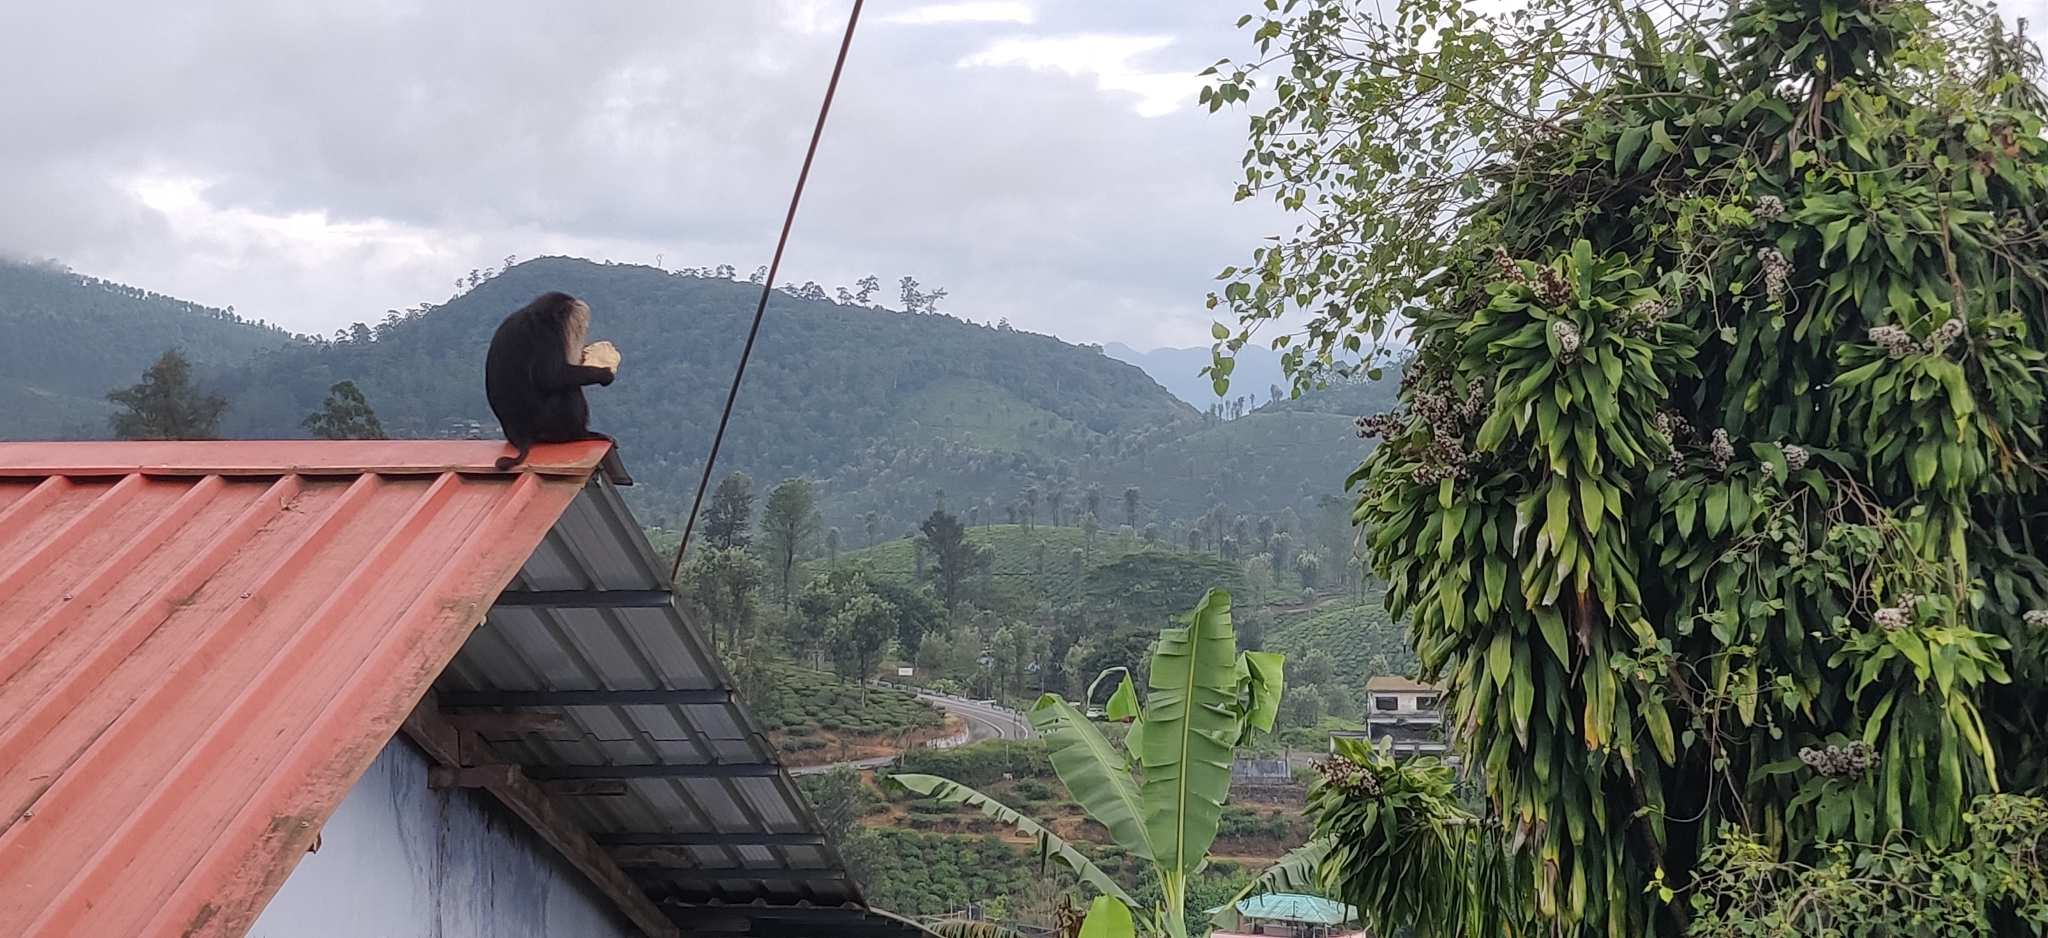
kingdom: Animalia
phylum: Chordata
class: Mammalia
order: Primates
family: Cercopithecidae
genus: Macaca
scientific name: Macaca silenus
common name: Lion-tailed macaque
